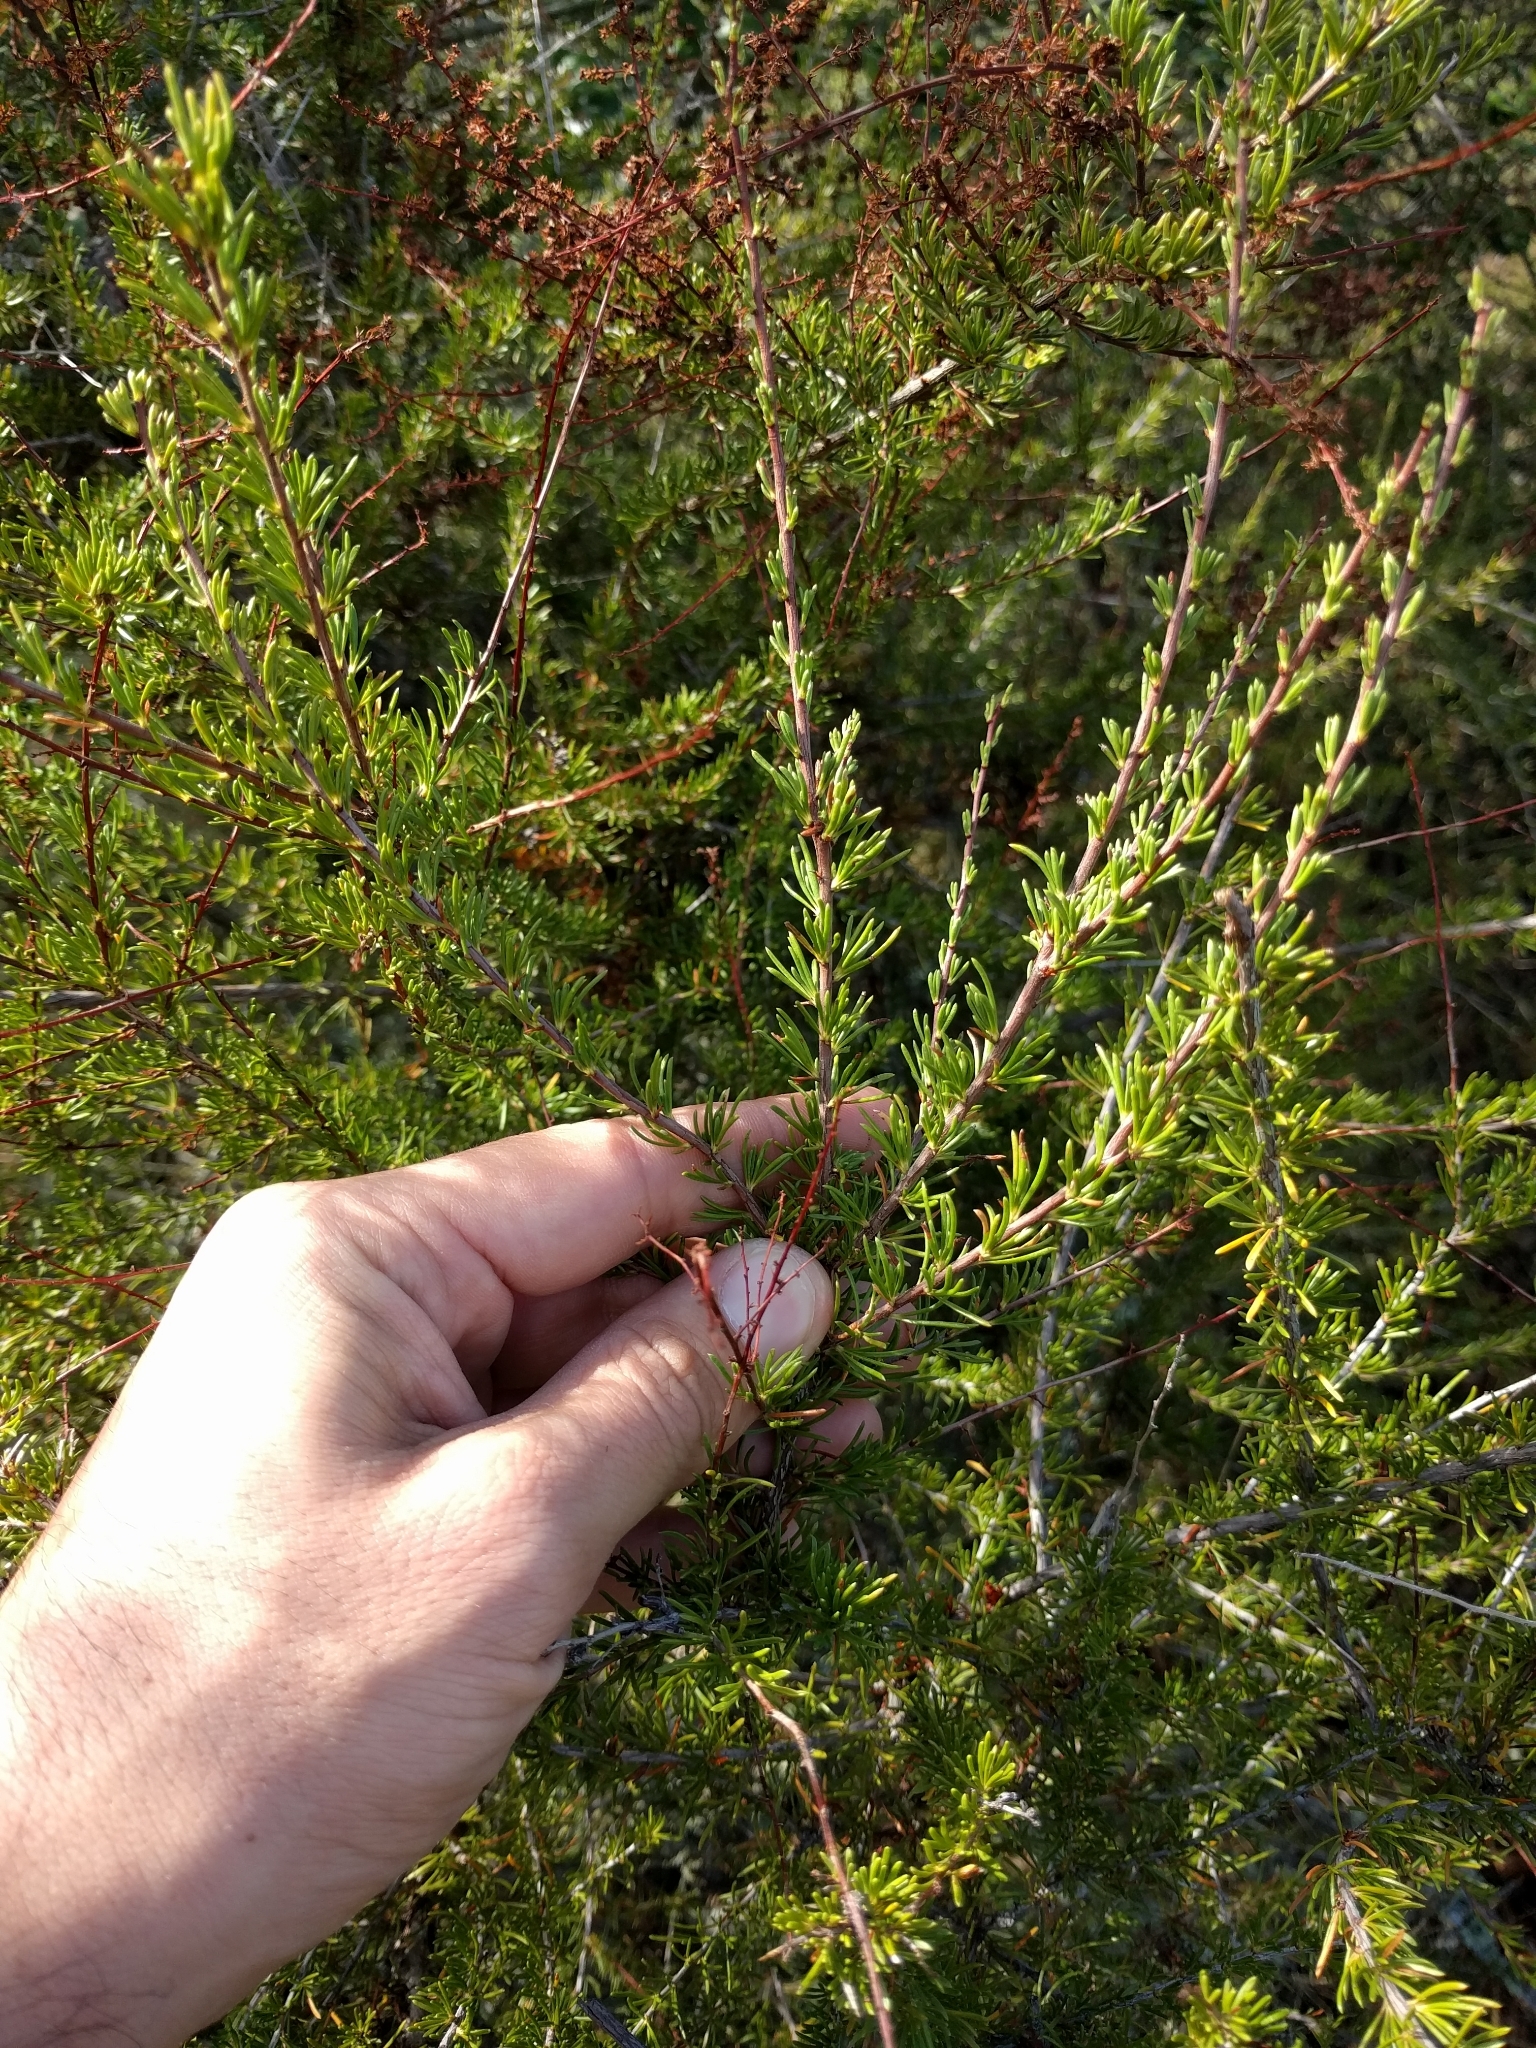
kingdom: Plantae
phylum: Tracheophyta
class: Magnoliopsida
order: Rosales
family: Rosaceae
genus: Adenostoma
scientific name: Adenostoma fasciculatum
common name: Chamise
